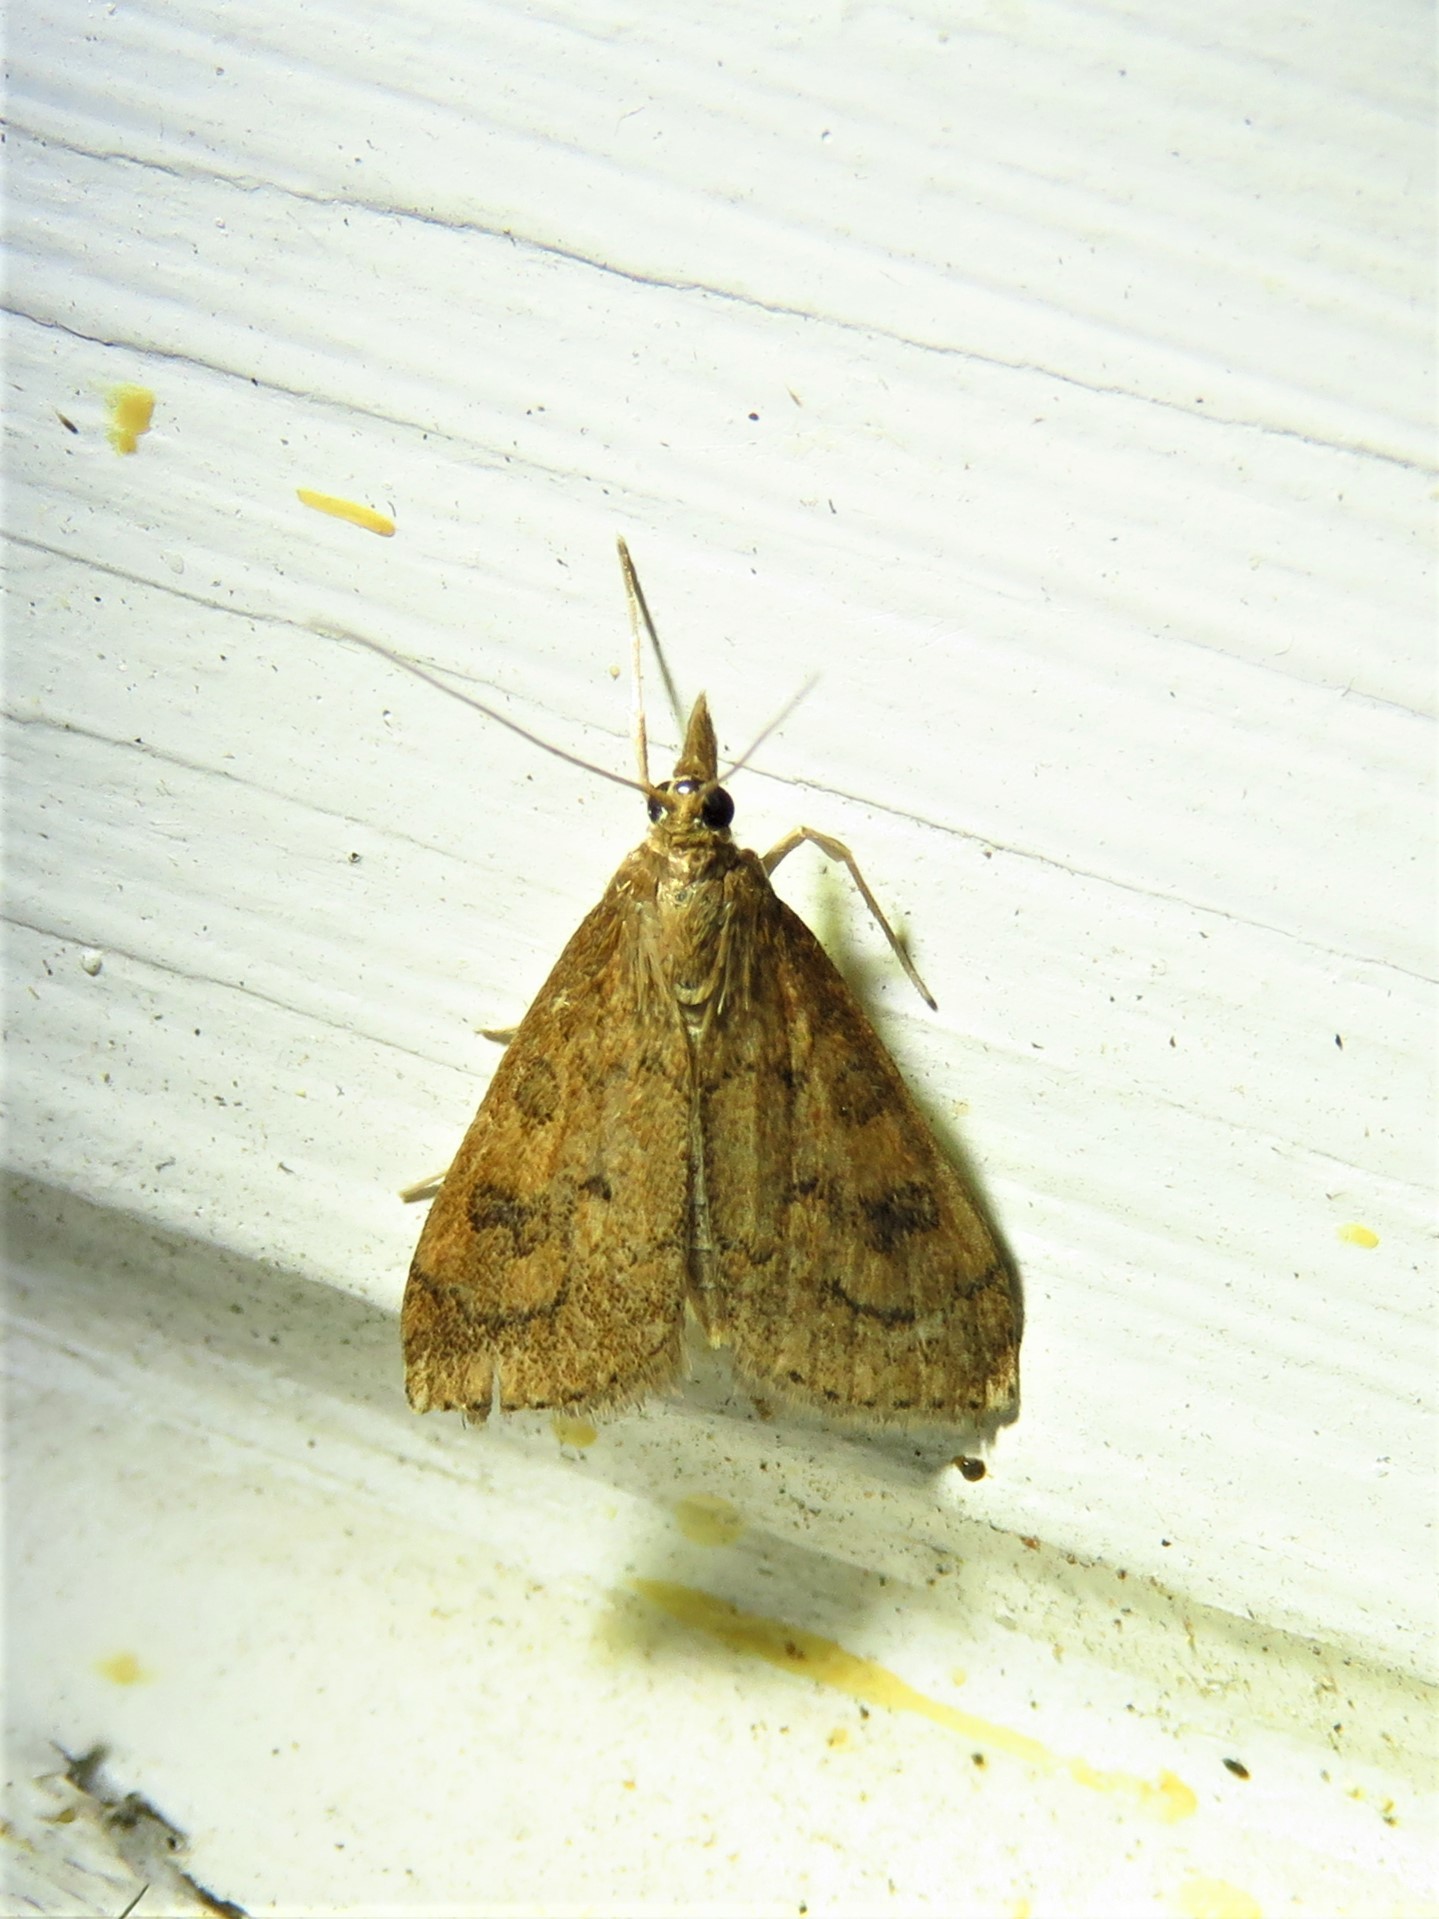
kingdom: Animalia
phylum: Arthropoda
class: Insecta
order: Lepidoptera
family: Crambidae
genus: Udea
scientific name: Udea rubigalis
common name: Celery leaftier moth
